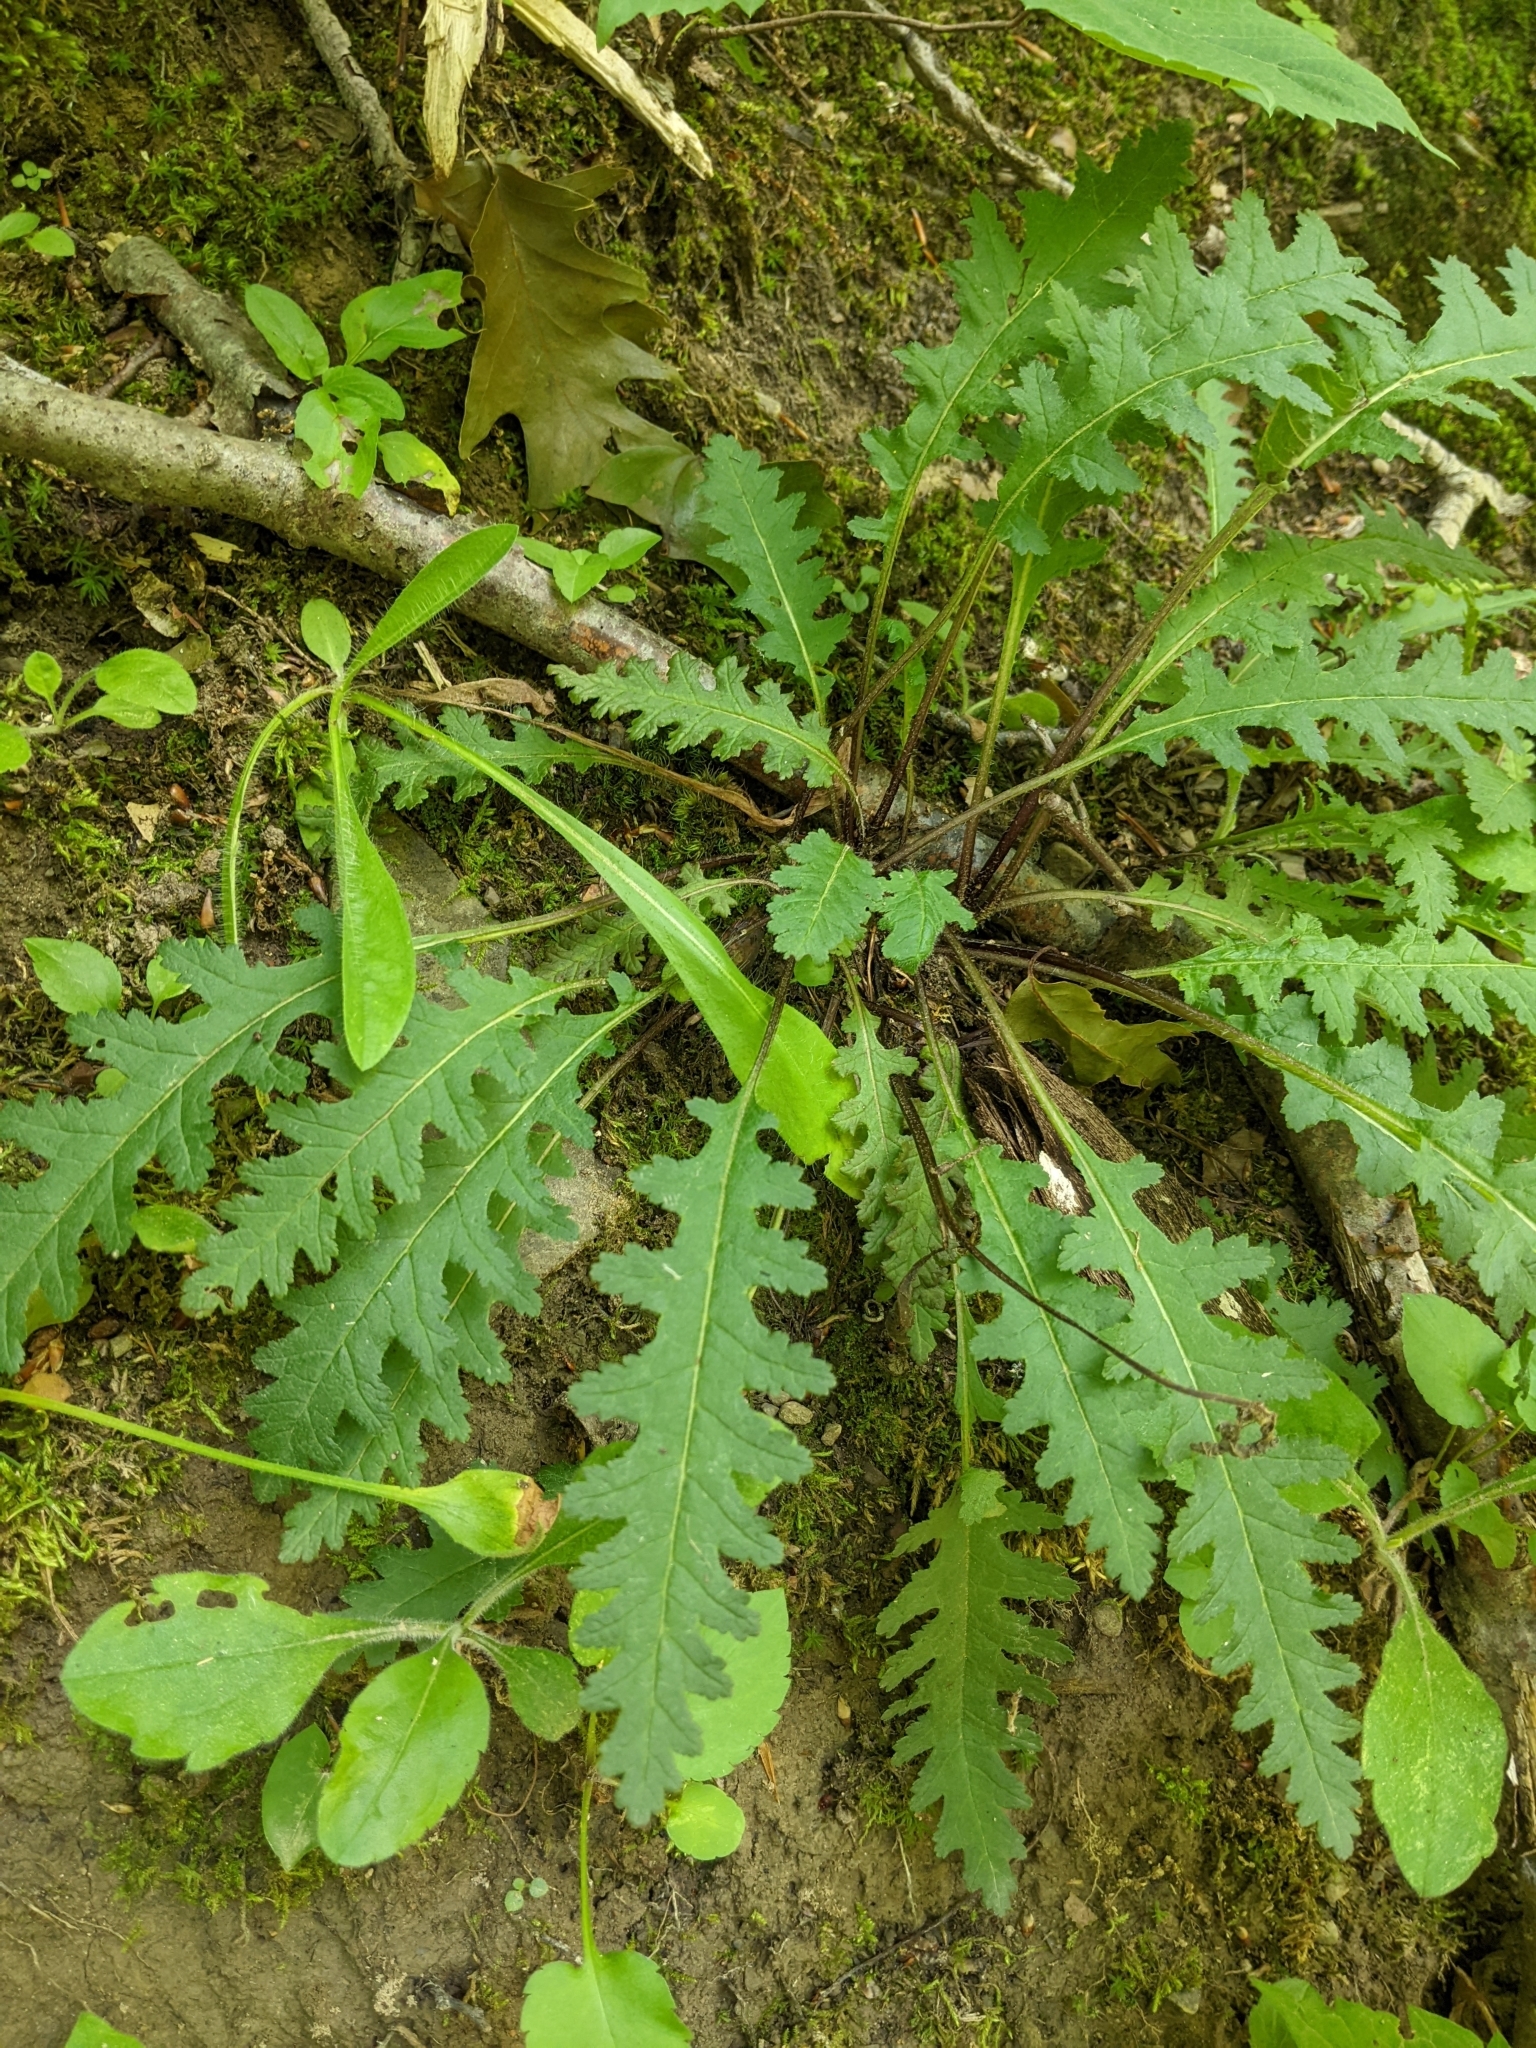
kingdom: Plantae
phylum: Tracheophyta
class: Magnoliopsida
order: Lamiales
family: Orobanchaceae
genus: Pedicularis
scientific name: Pedicularis canadensis
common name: Early lousewort
